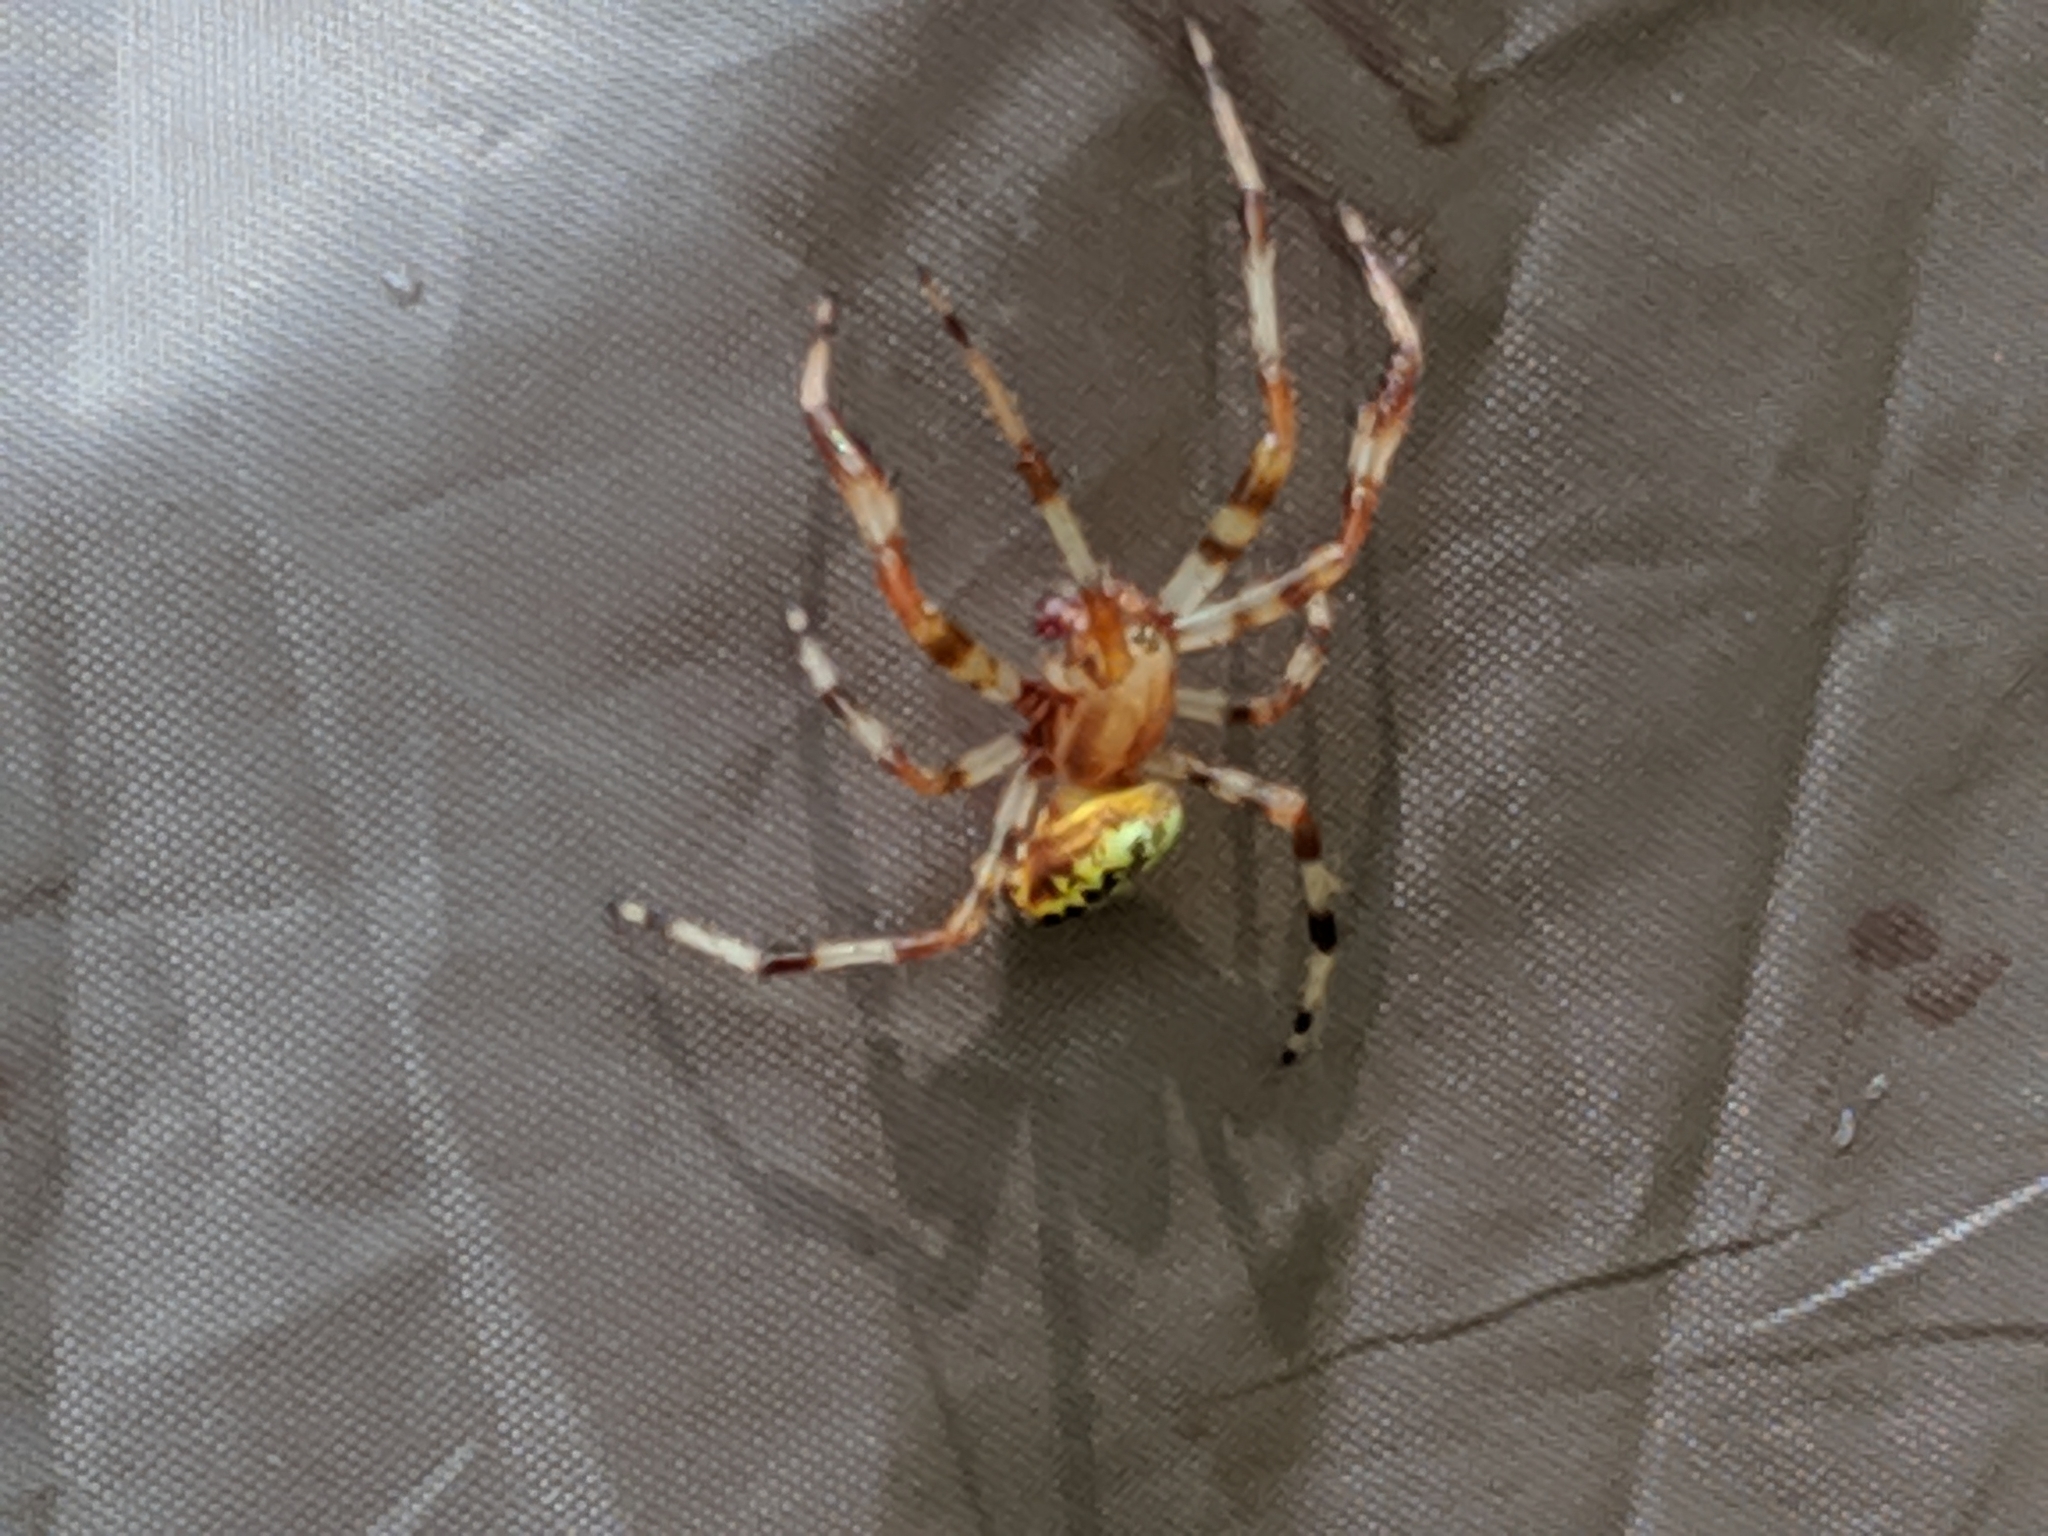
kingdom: Animalia
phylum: Arthropoda
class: Arachnida
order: Araneae
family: Araneidae
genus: Araneus
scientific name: Araneus marmoreus
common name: Marbled orbweaver
